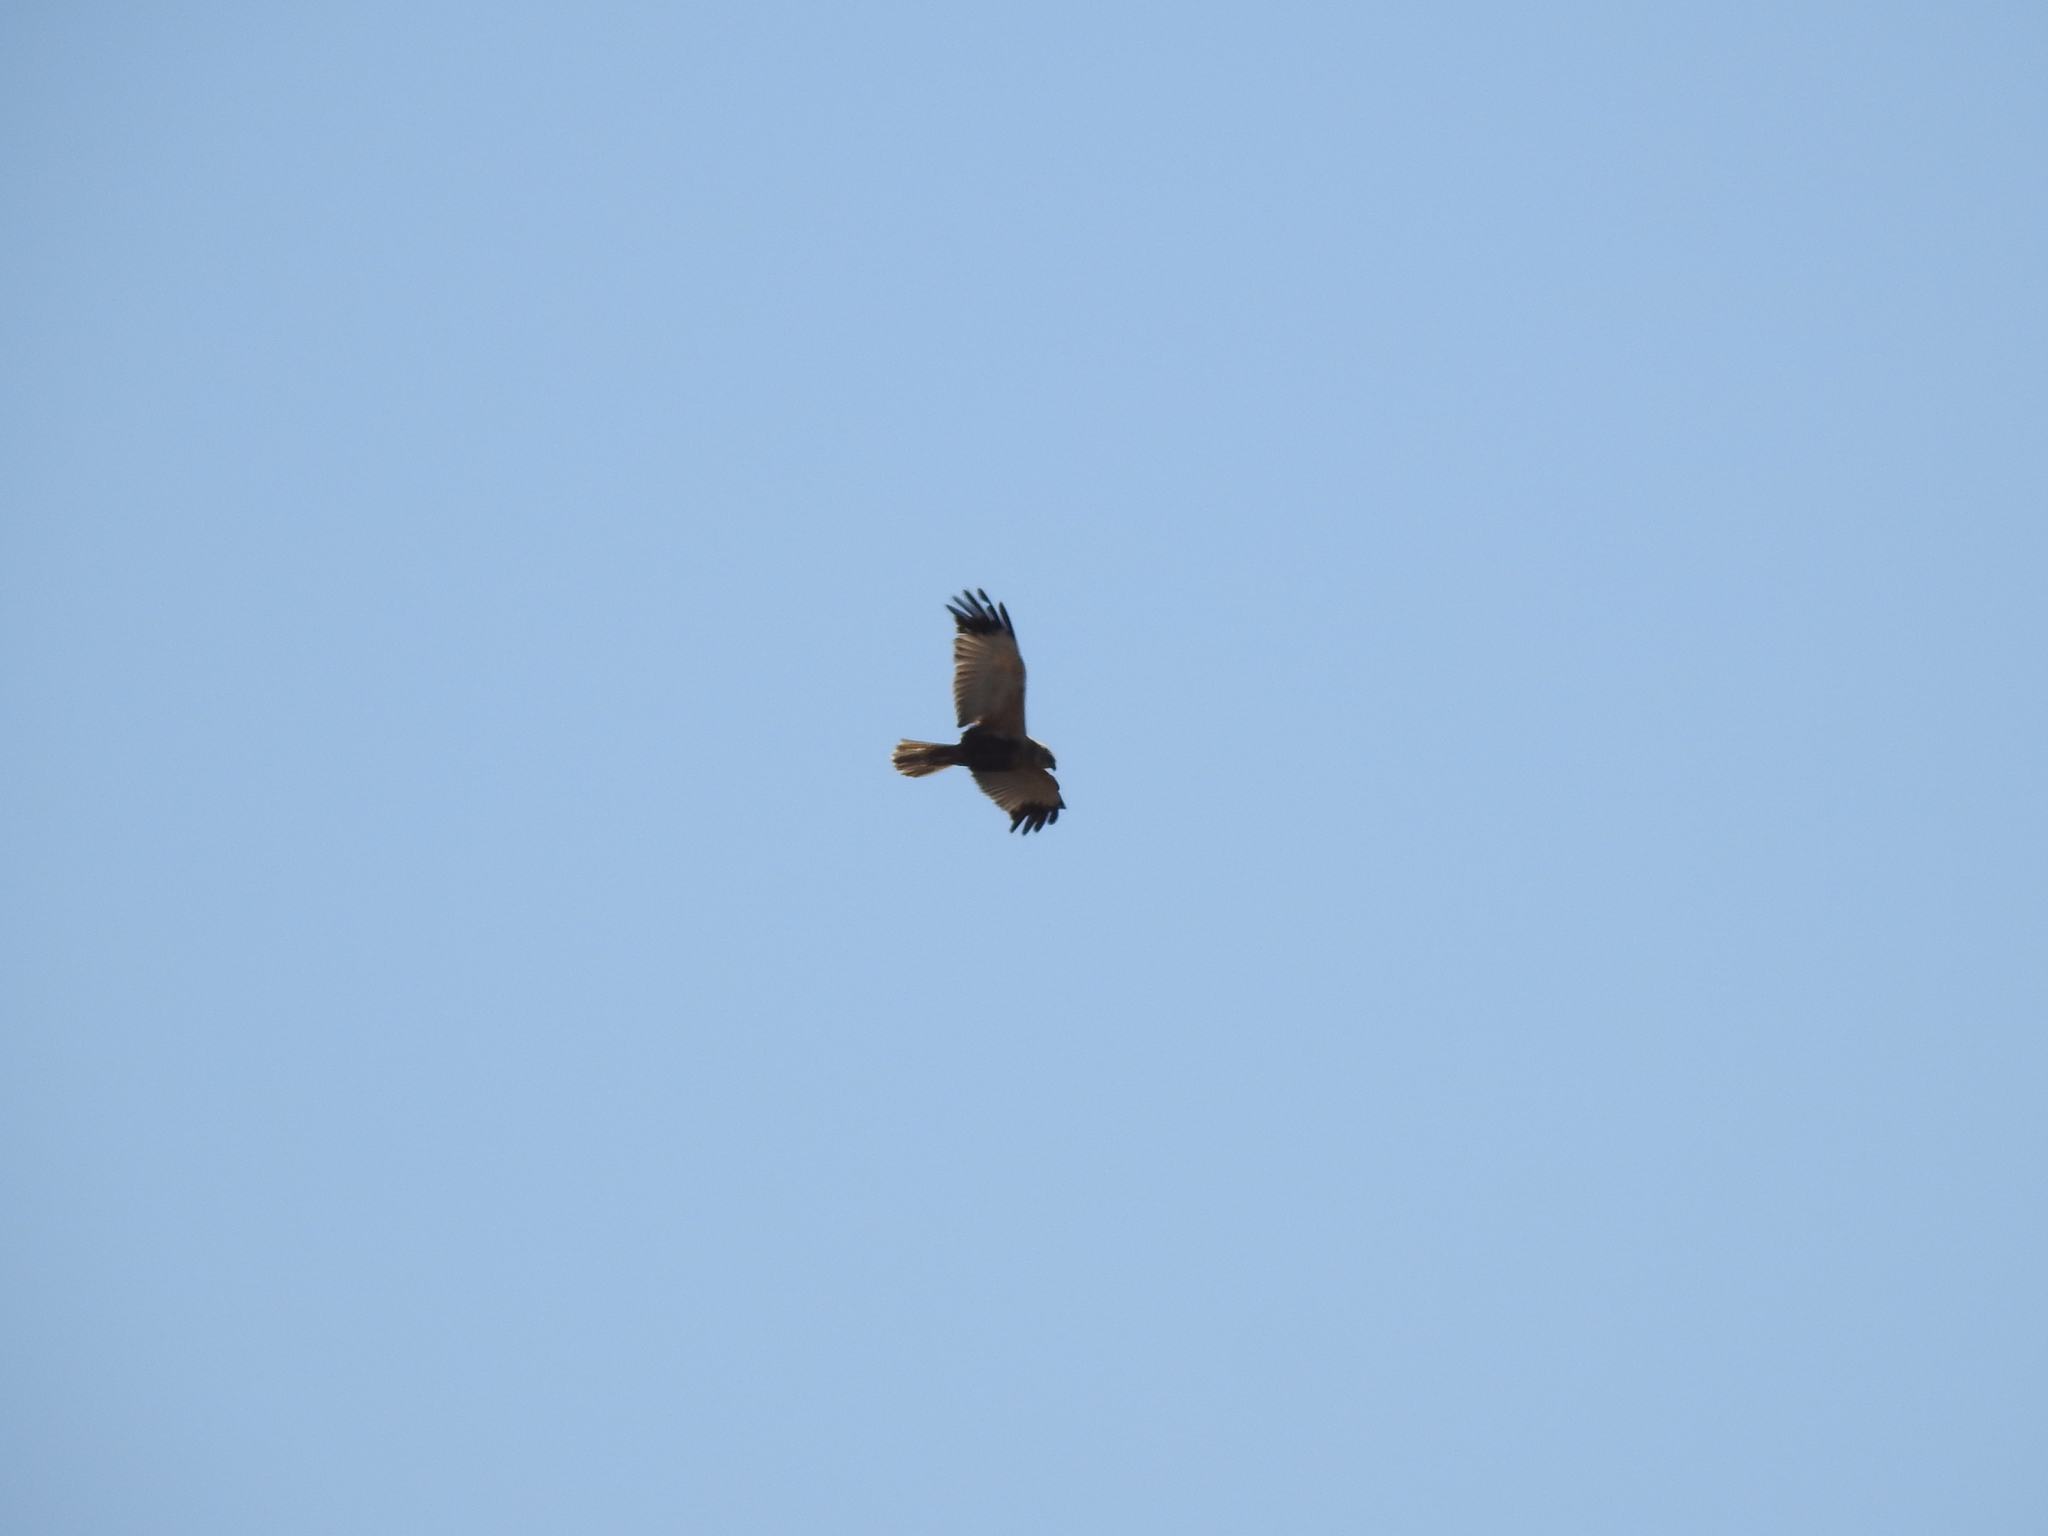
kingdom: Animalia
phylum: Chordata
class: Aves
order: Accipitriformes
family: Accipitridae
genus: Circus
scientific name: Circus aeruginosus
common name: Western marsh harrier
